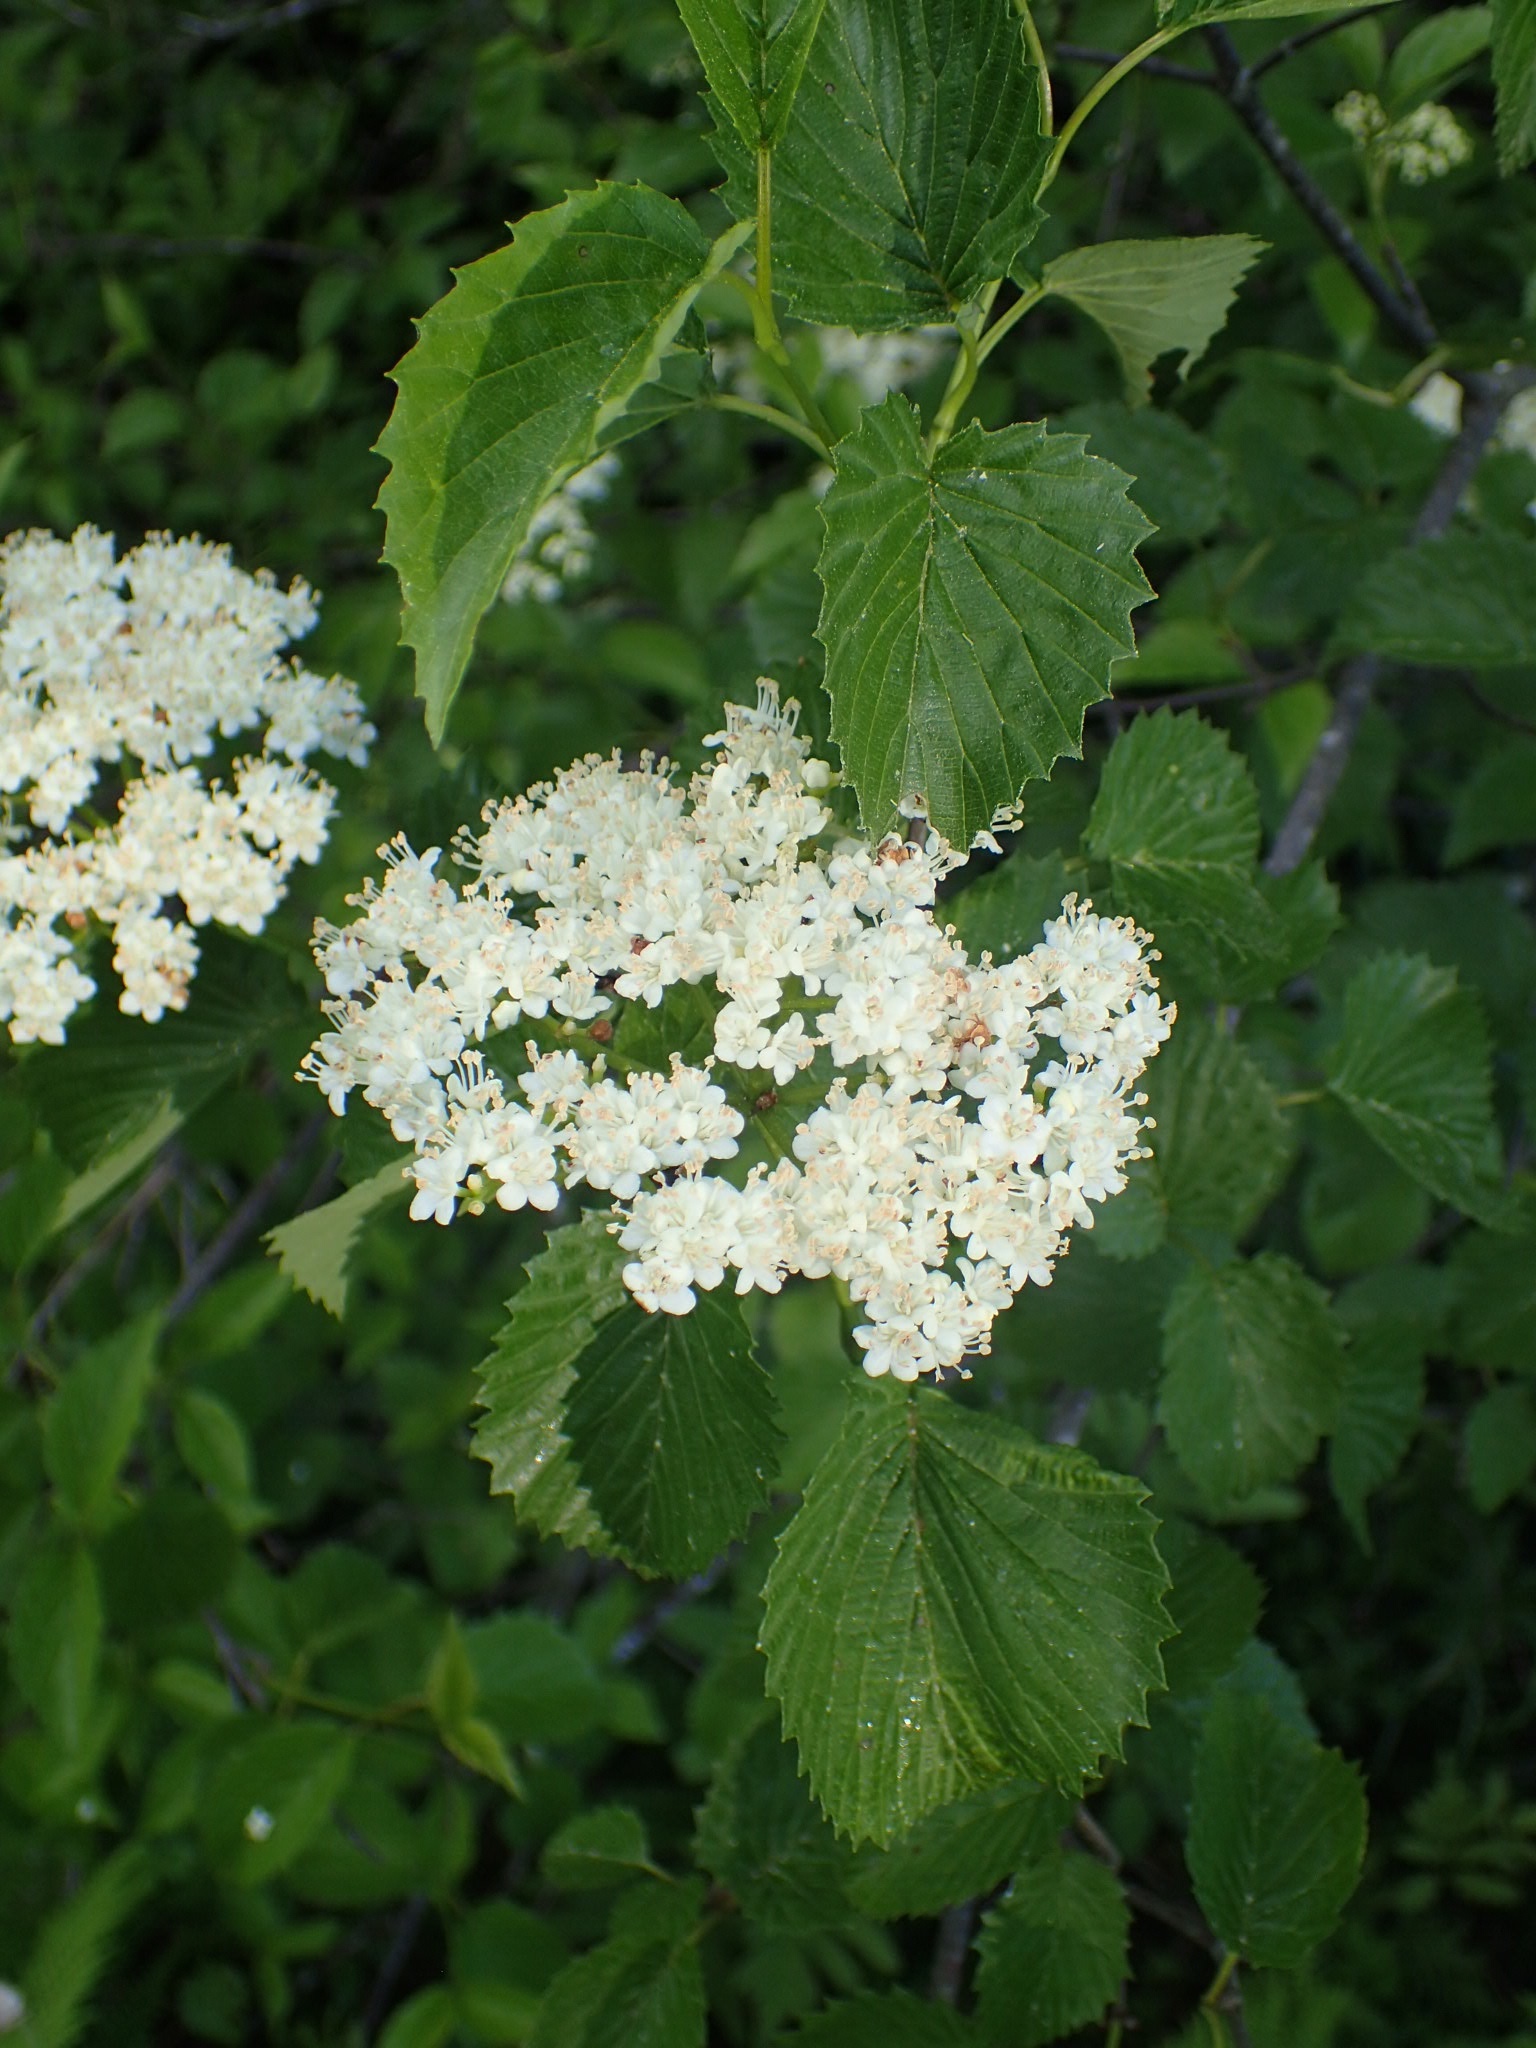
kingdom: Plantae
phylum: Tracheophyta
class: Magnoliopsida
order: Dipsacales
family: Viburnaceae
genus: Viburnum
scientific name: Viburnum dentatum
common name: Arrow-wood
